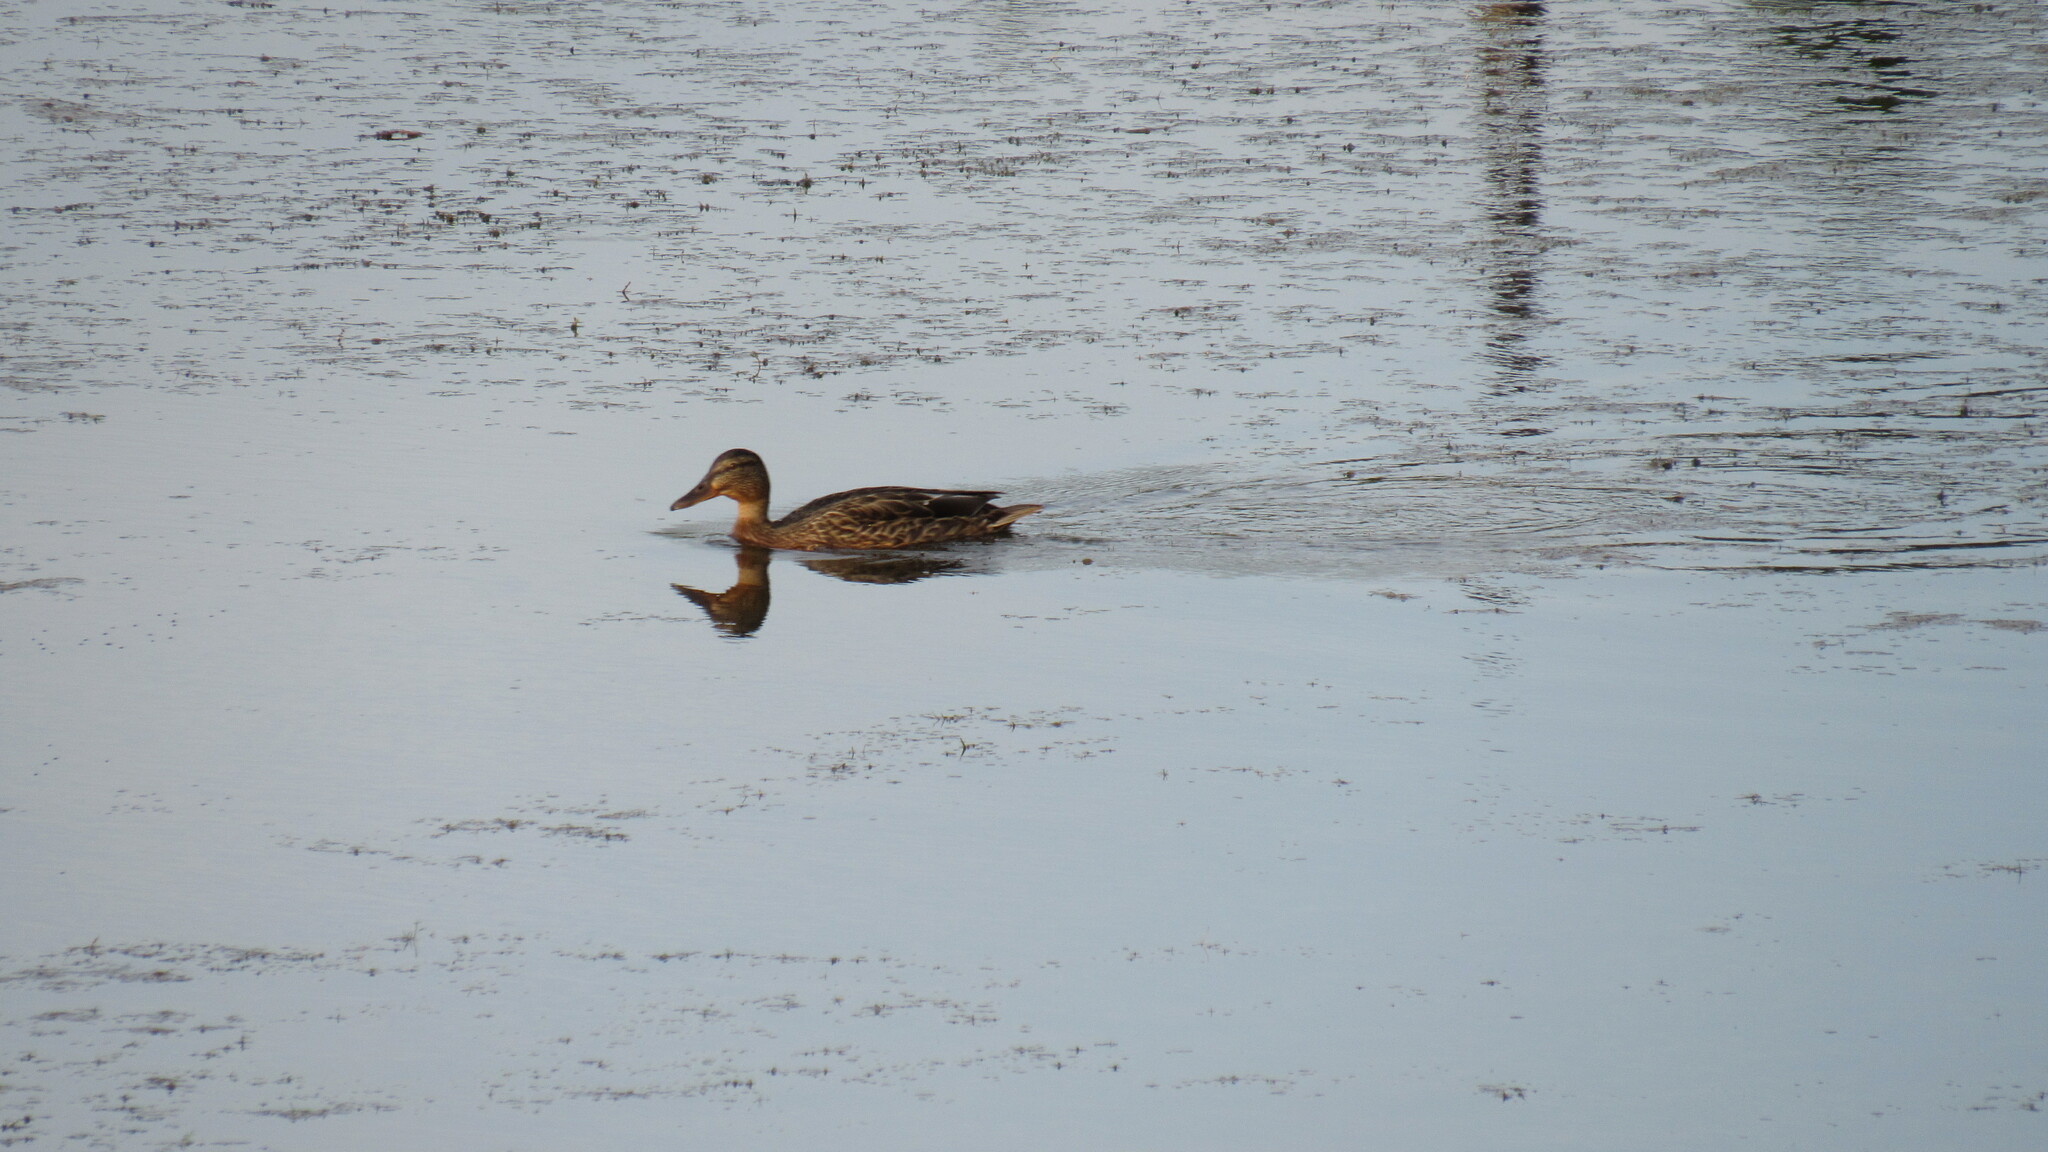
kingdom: Animalia
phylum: Chordata
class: Aves
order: Anseriformes
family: Anatidae
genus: Anas
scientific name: Anas platyrhynchos
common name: Mallard
